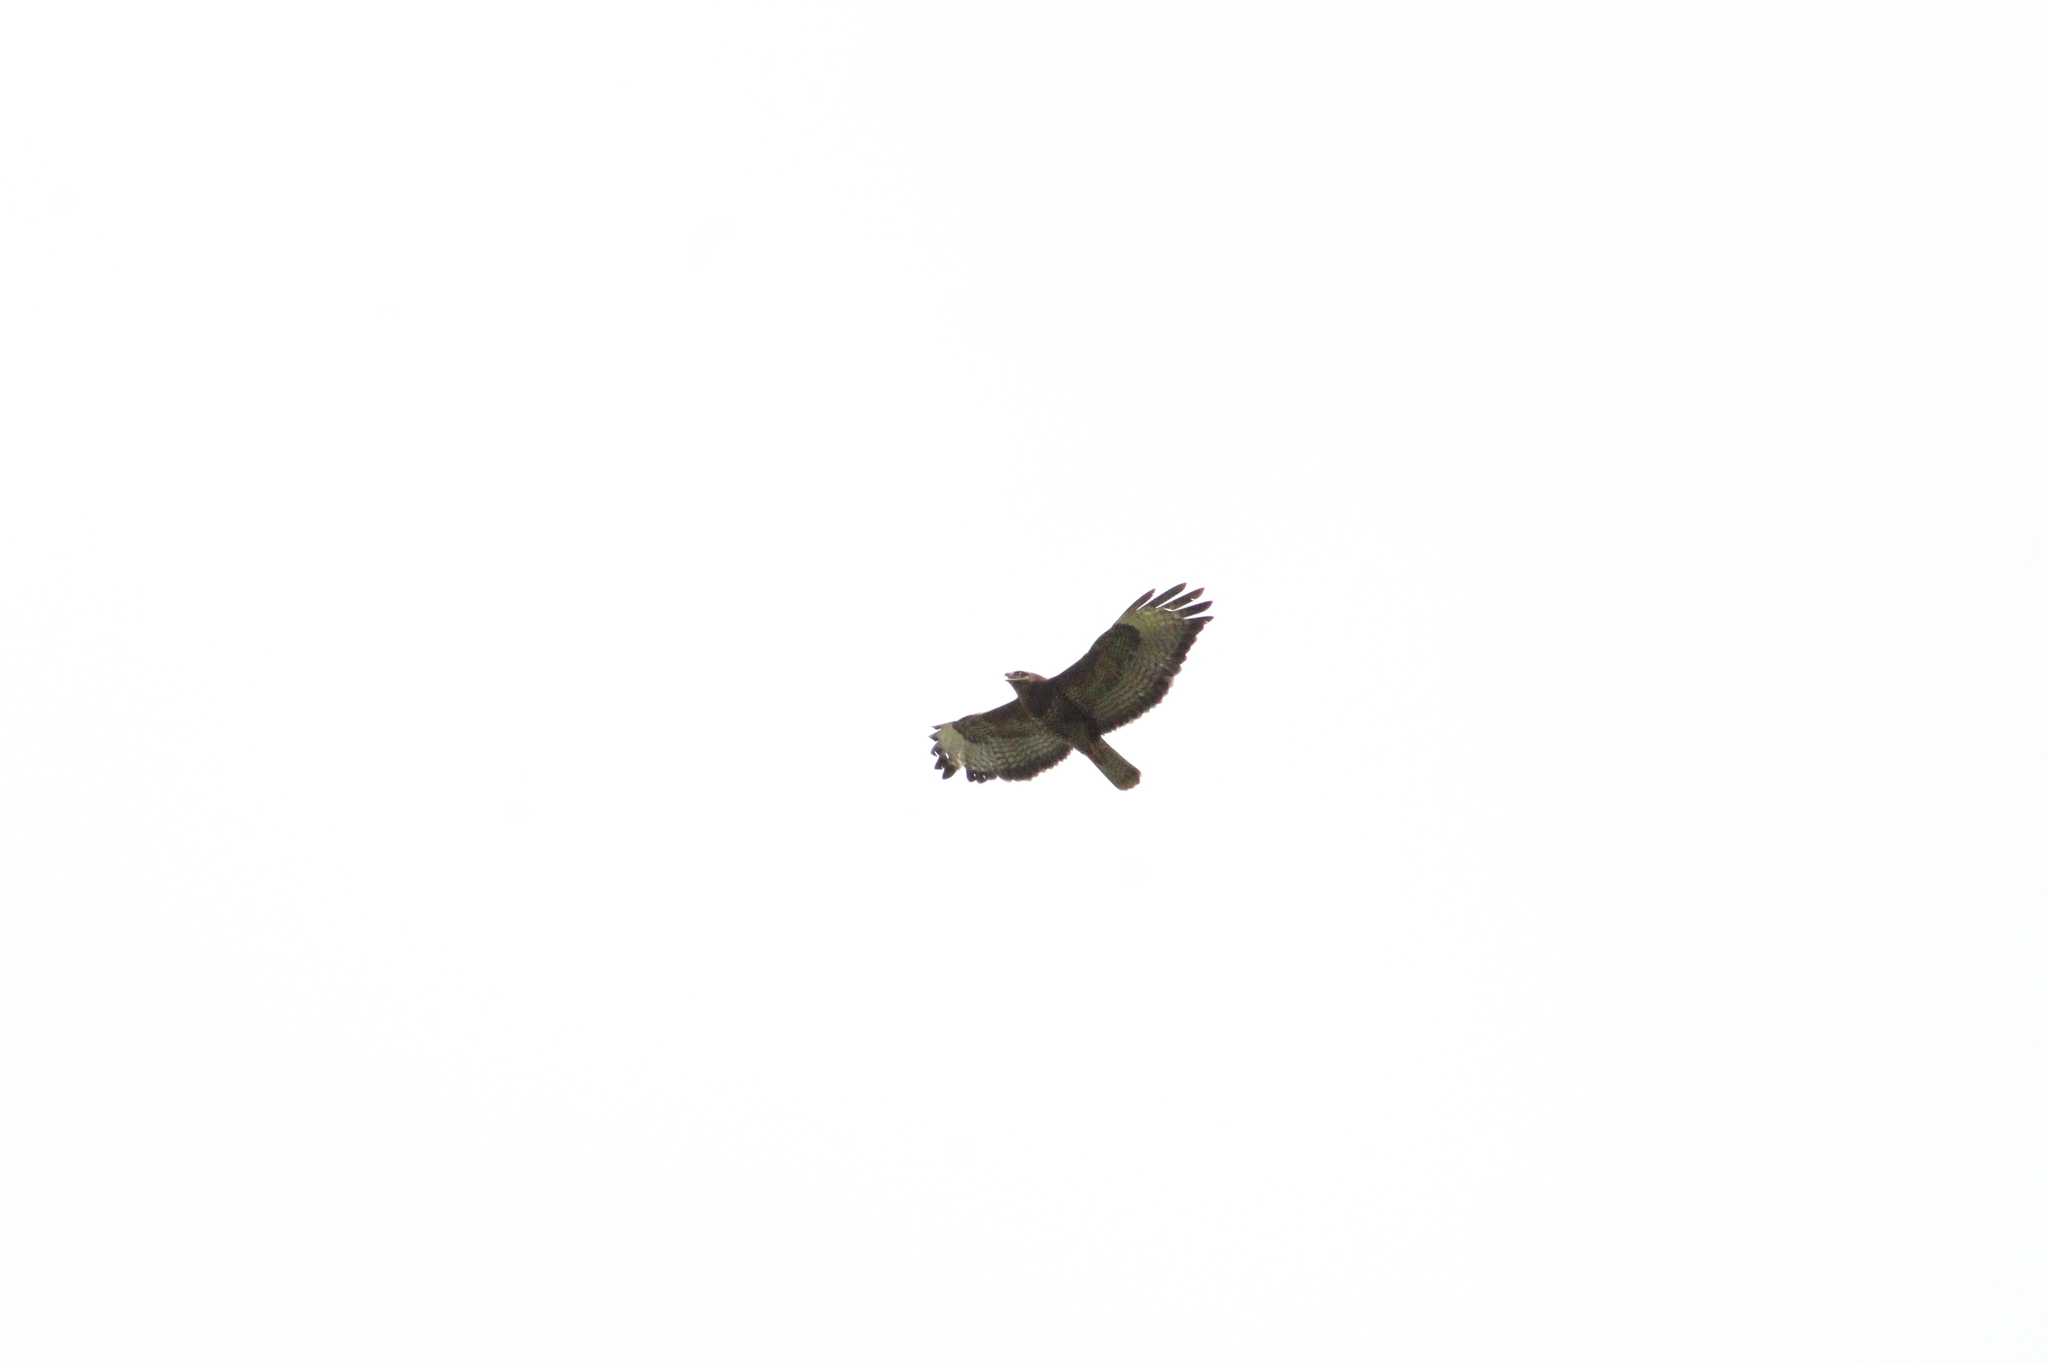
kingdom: Animalia
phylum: Chordata
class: Aves
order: Accipitriformes
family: Accipitridae
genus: Buteo
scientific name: Buteo buteo
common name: Common buzzard
